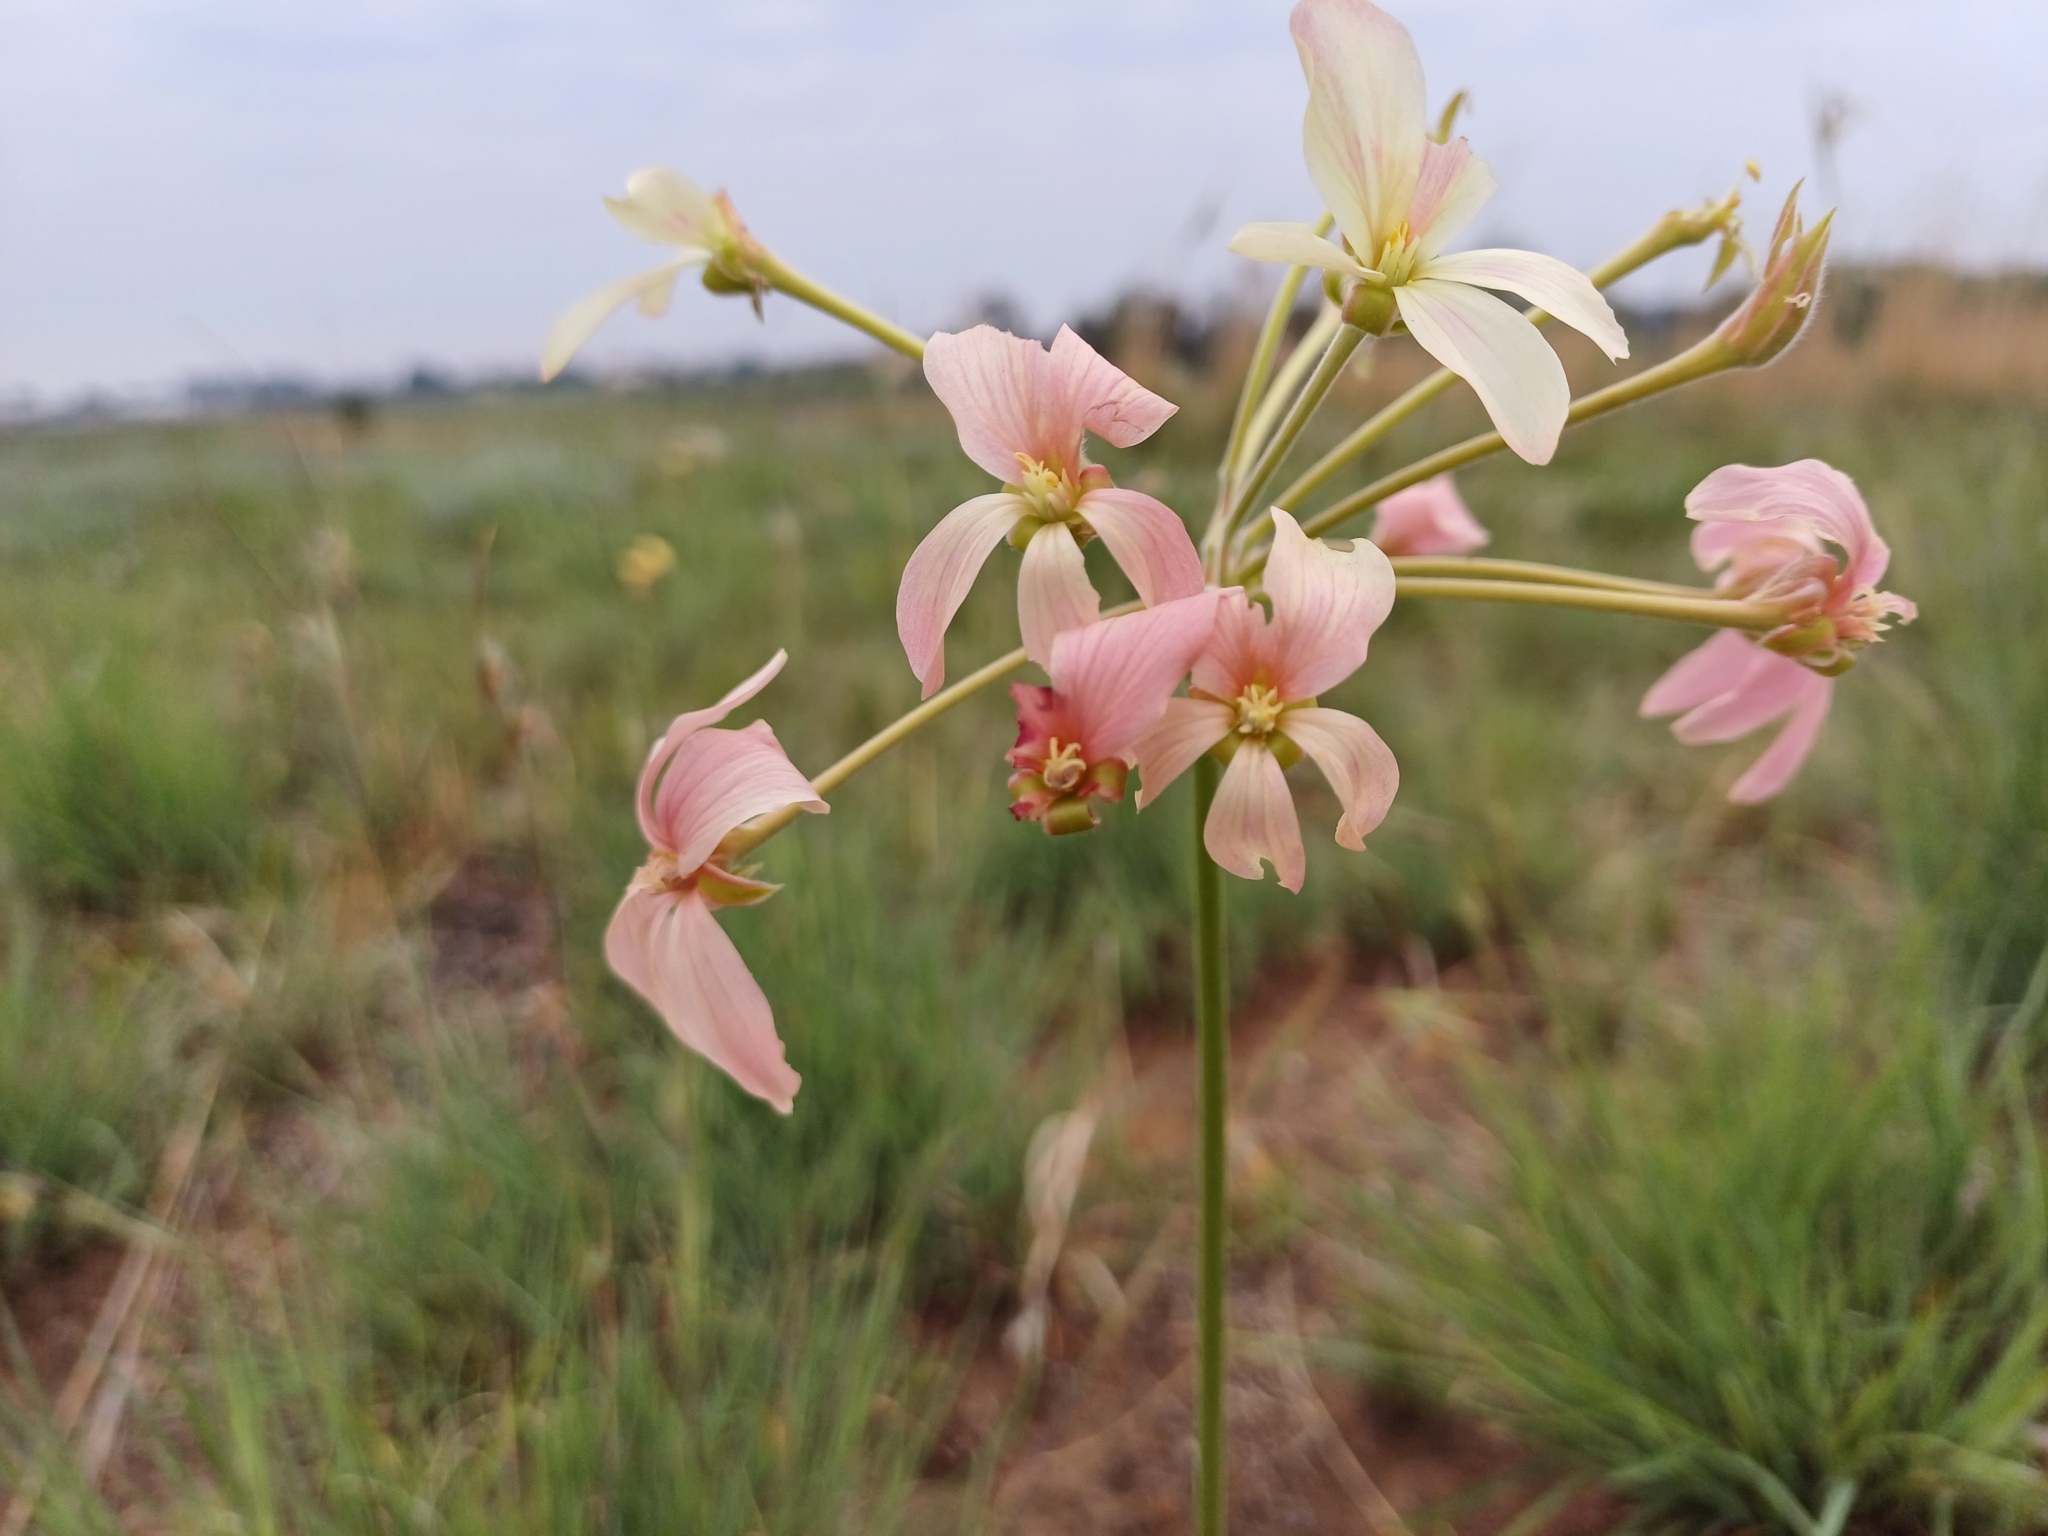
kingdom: Plantae
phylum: Tracheophyta
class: Magnoliopsida
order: Geraniales
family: Geraniaceae
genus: Pelargonium
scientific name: Pelargonium luridum
